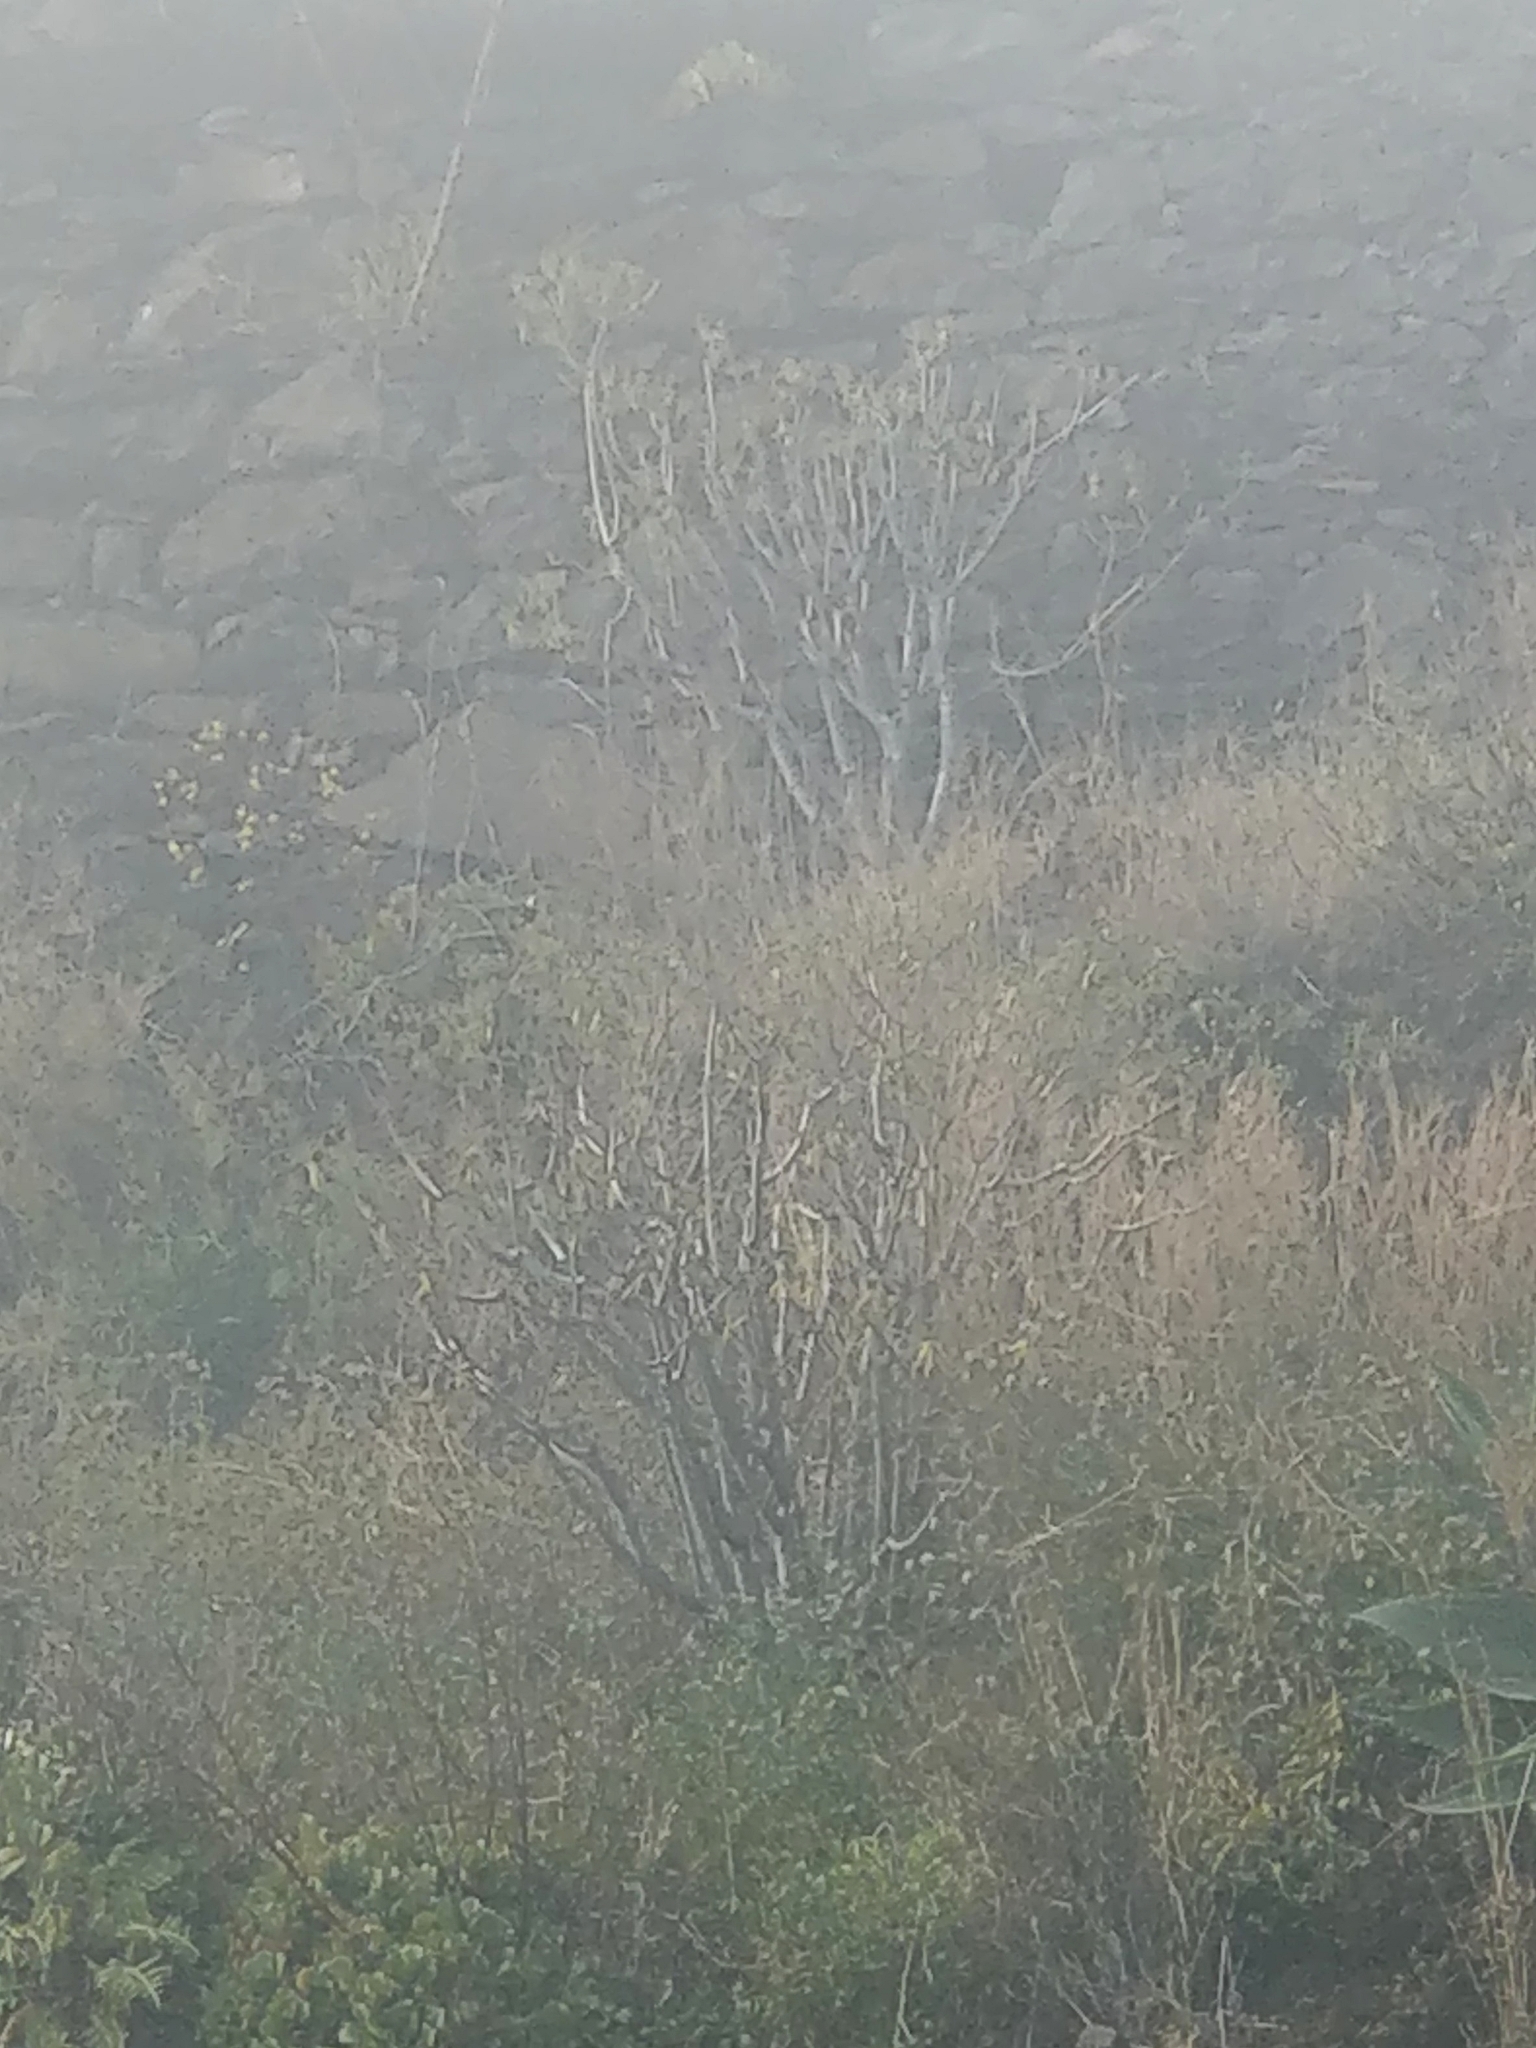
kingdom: Plantae
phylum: Tracheophyta
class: Magnoliopsida
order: Malpighiales
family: Euphorbiaceae
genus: Euphorbia
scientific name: Euphorbia piscatoria
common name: Fish-stunning spurge
